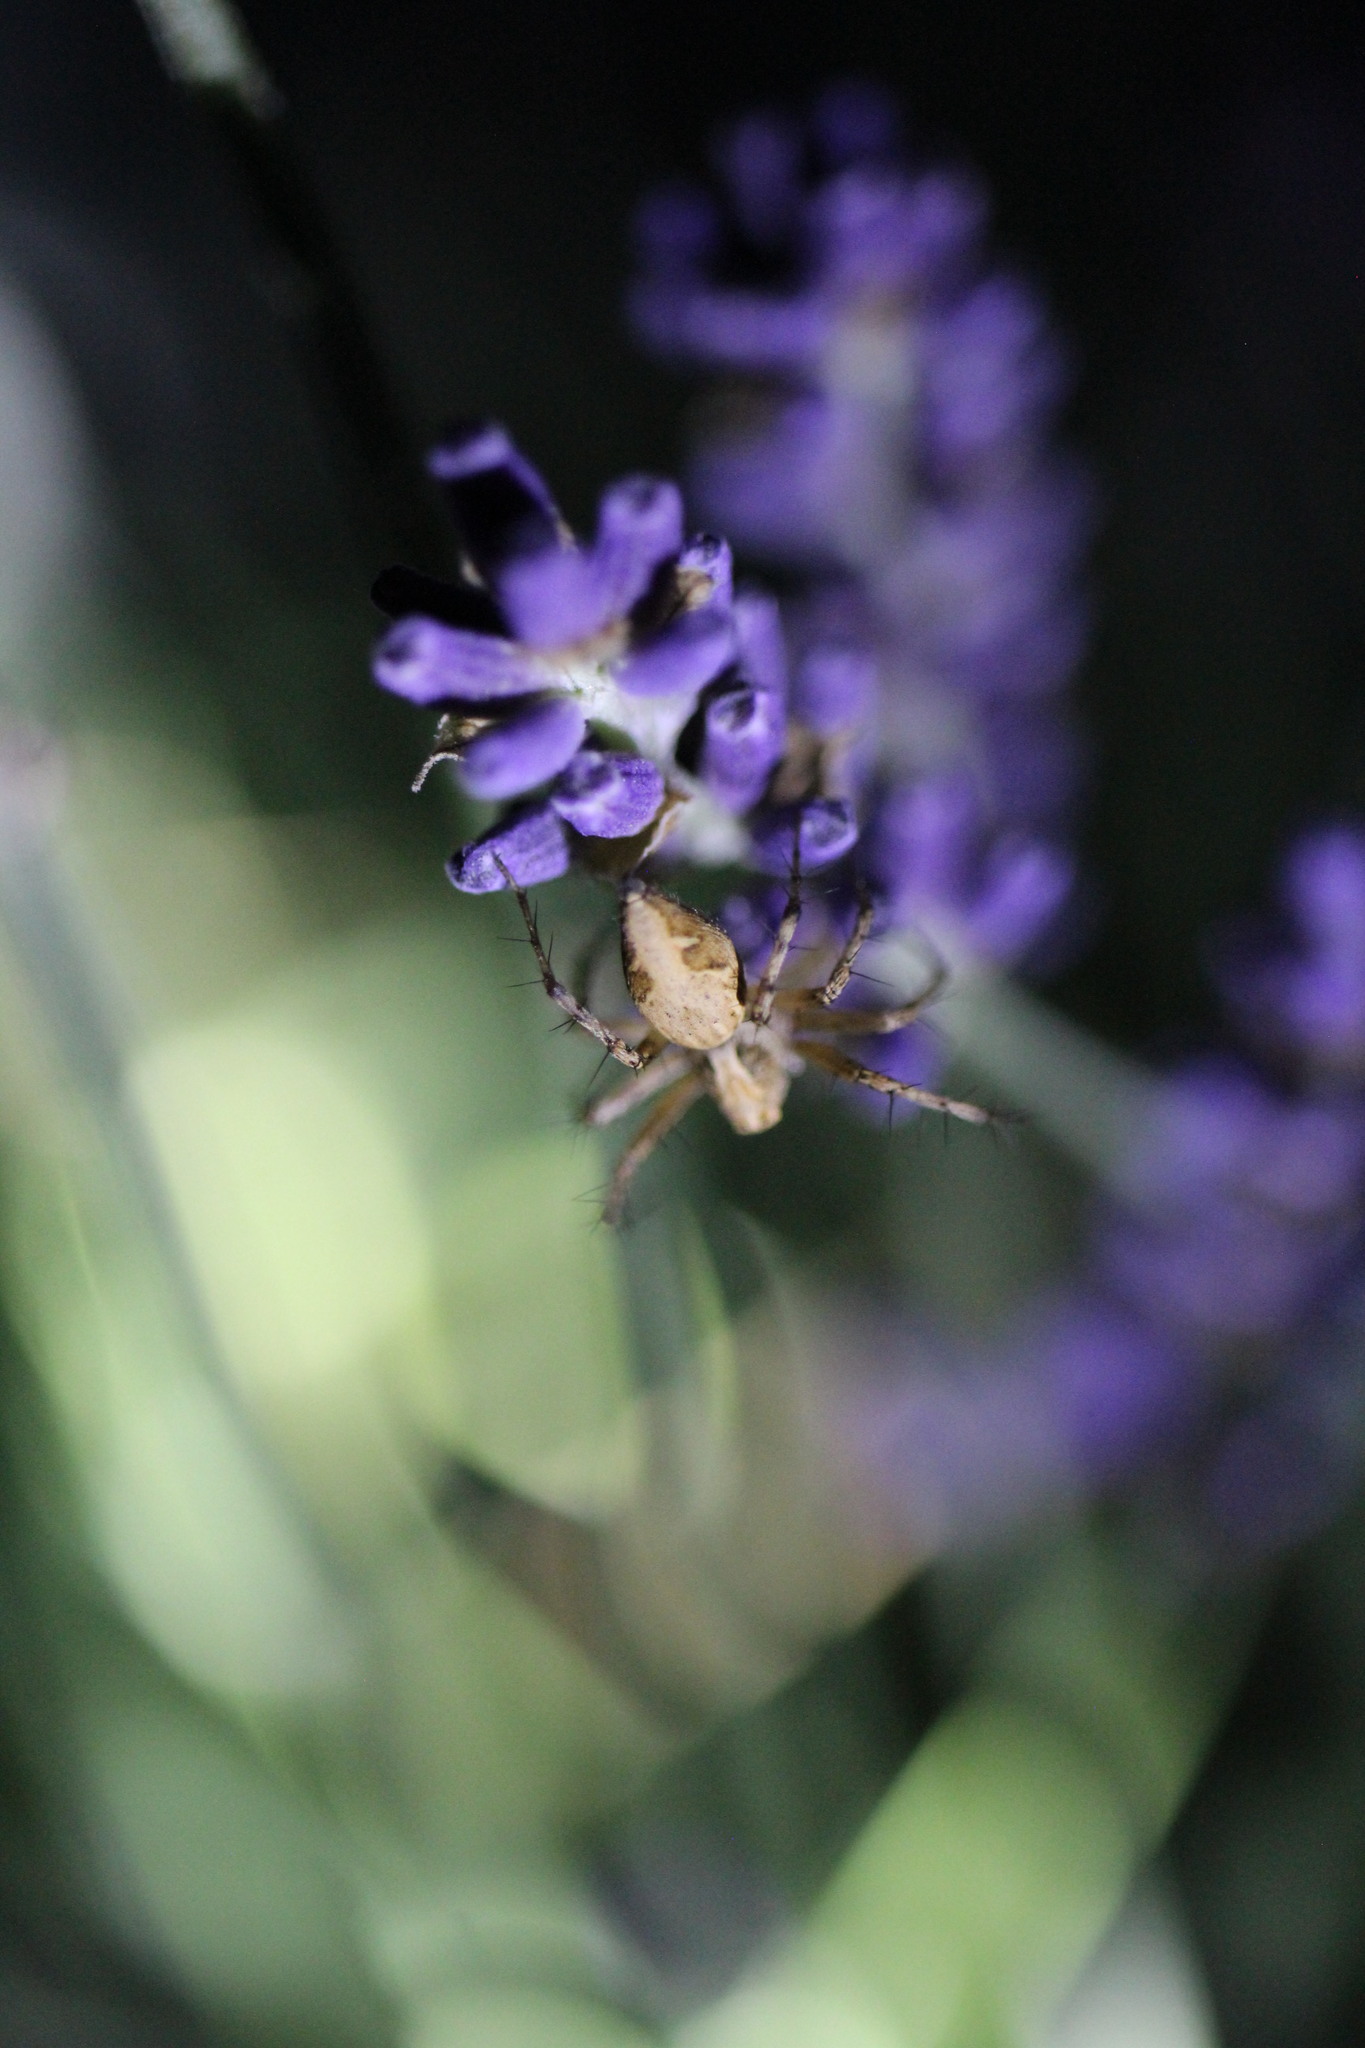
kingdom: Animalia
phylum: Arthropoda
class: Arachnida
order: Araneae
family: Oxyopidae
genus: Oxyopes
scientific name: Oxyopes scalaris
